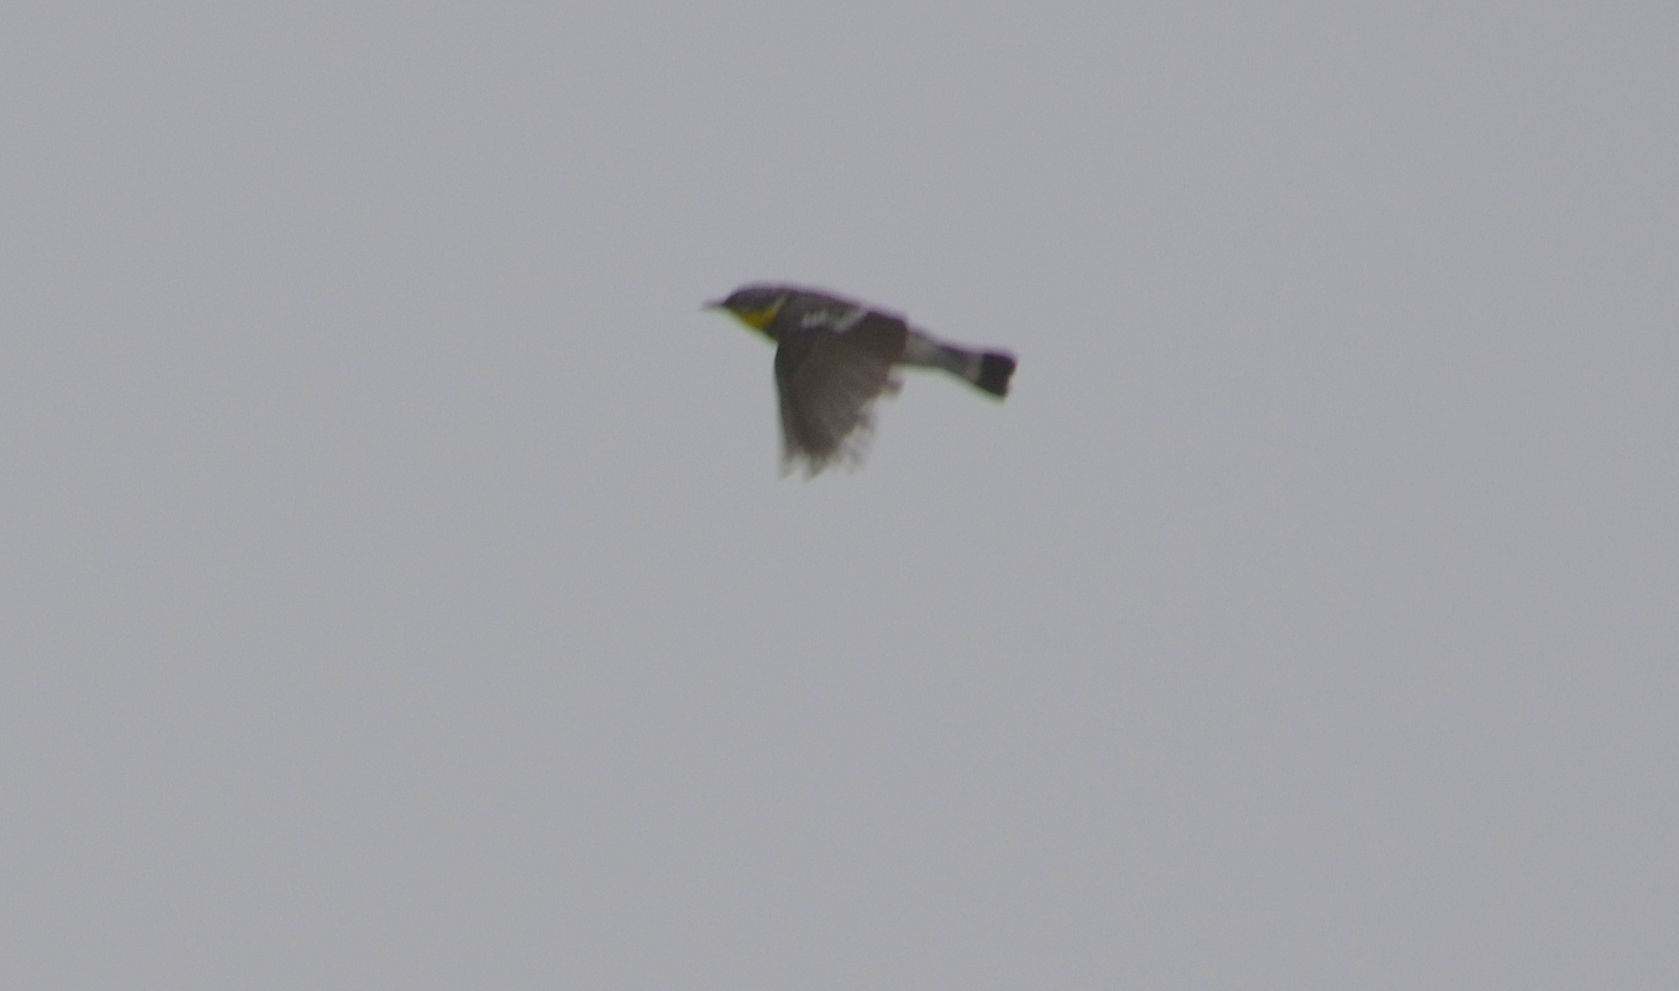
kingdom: Animalia
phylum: Chordata
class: Aves
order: Passeriformes
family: Parulidae
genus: Setophaga
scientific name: Setophaga magnolia
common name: Magnolia warbler
